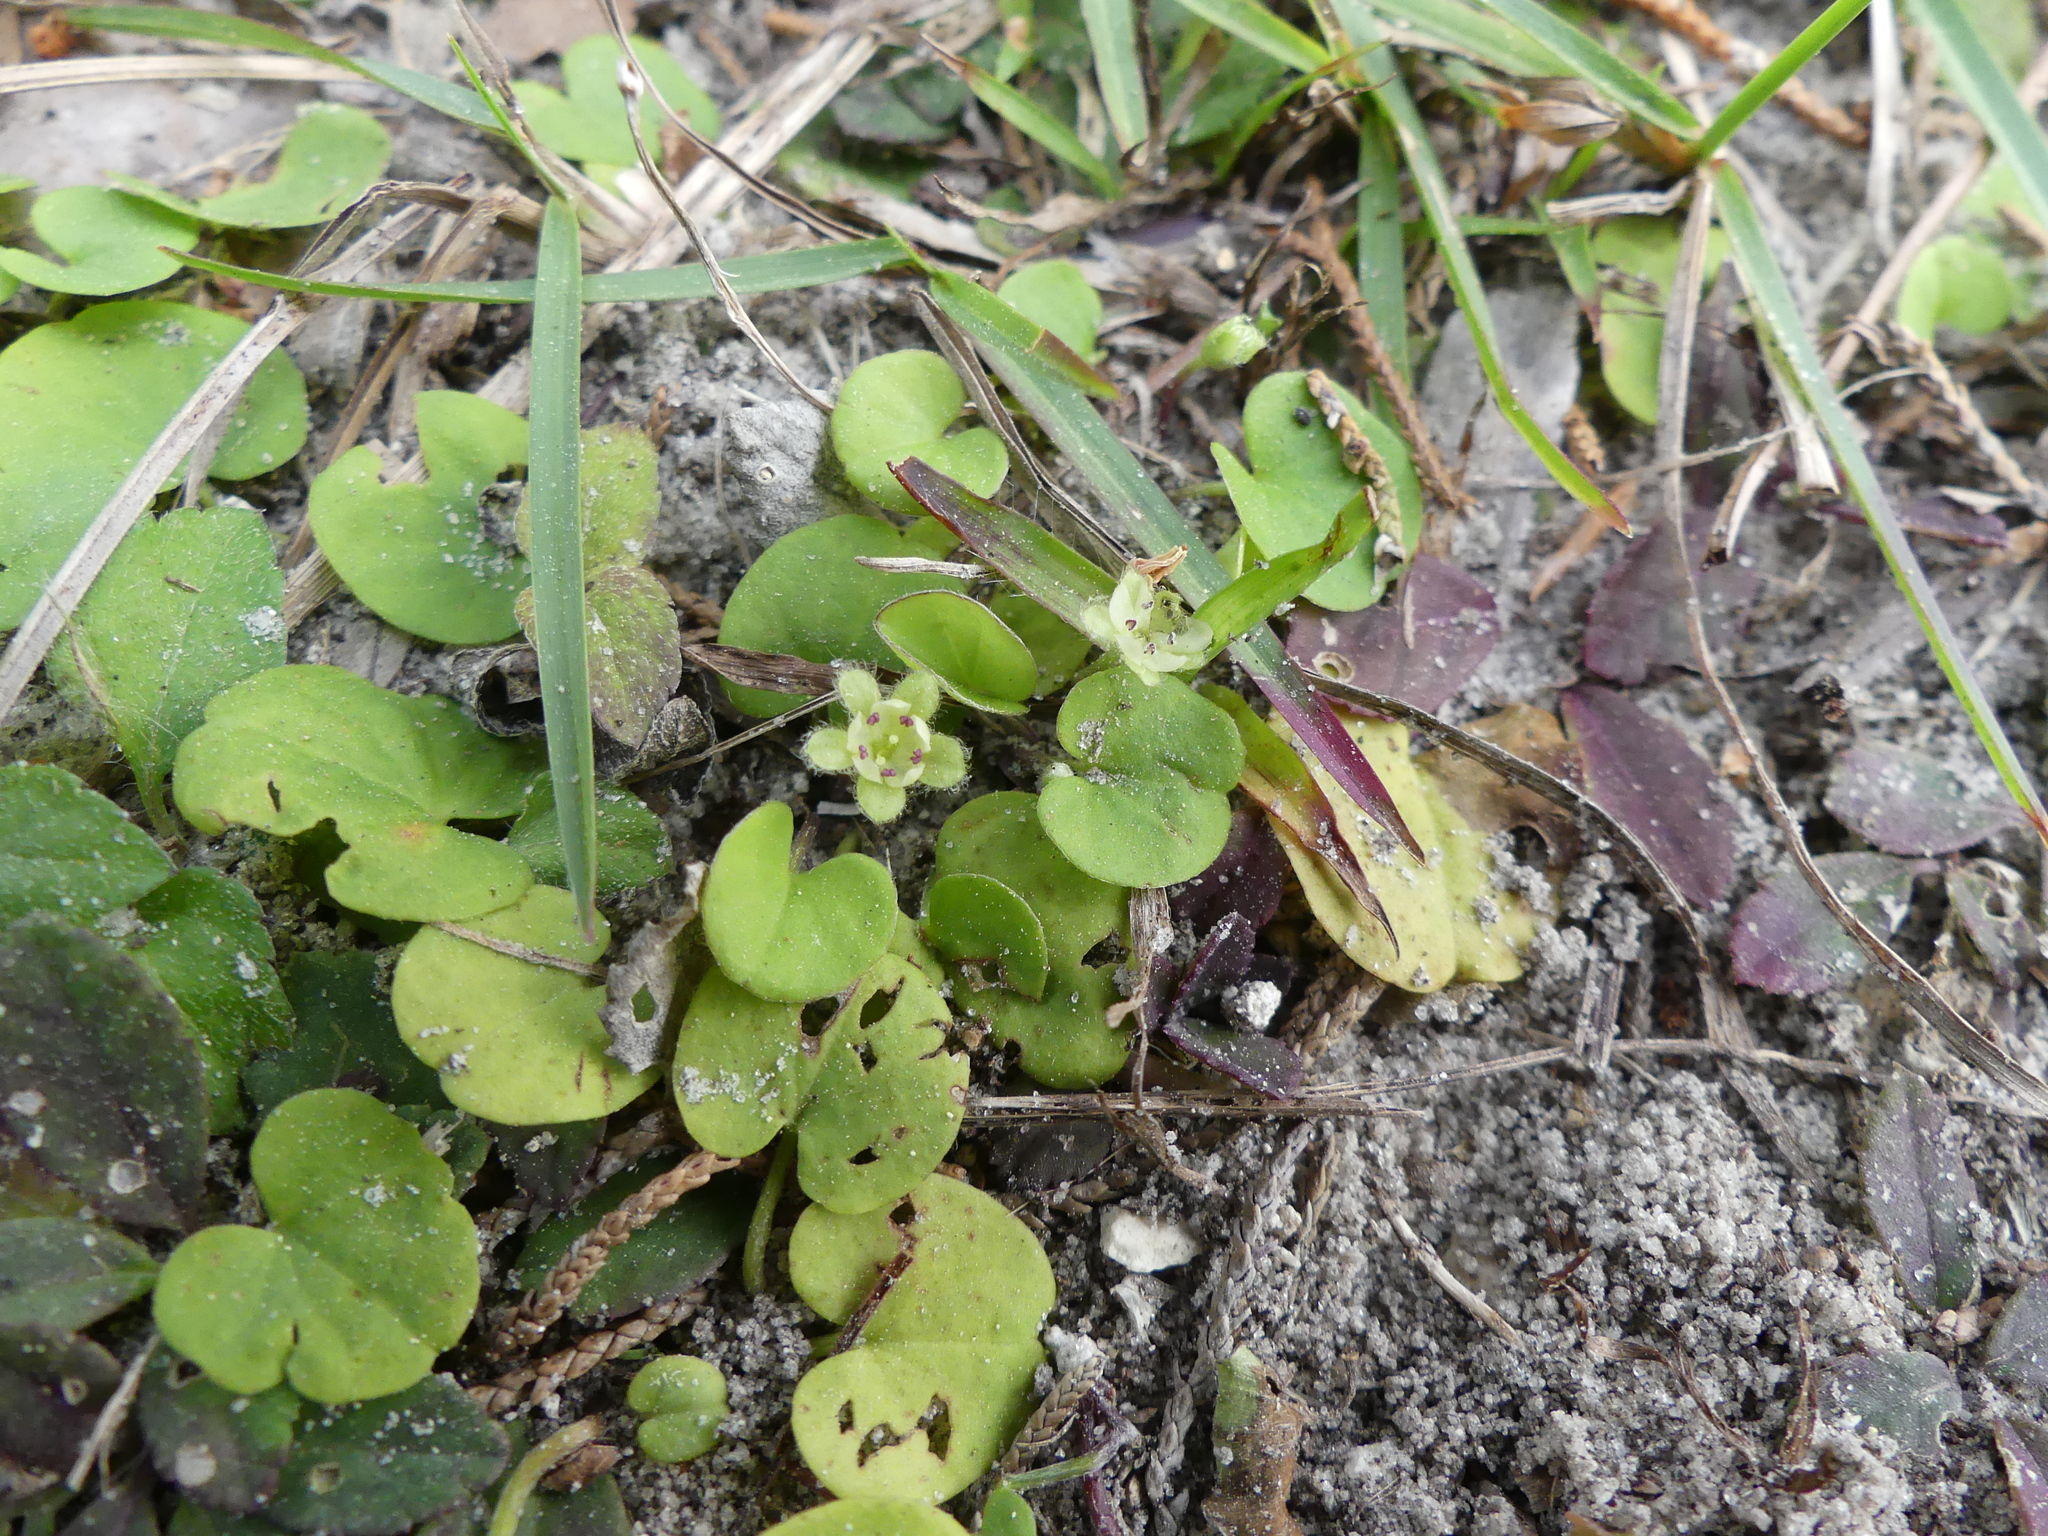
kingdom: Plantae
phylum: Tracheophyta
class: Magnoliopsida
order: Solanales
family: Convolvulaceae
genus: Dichondra
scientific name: Dichondra carolinensis
